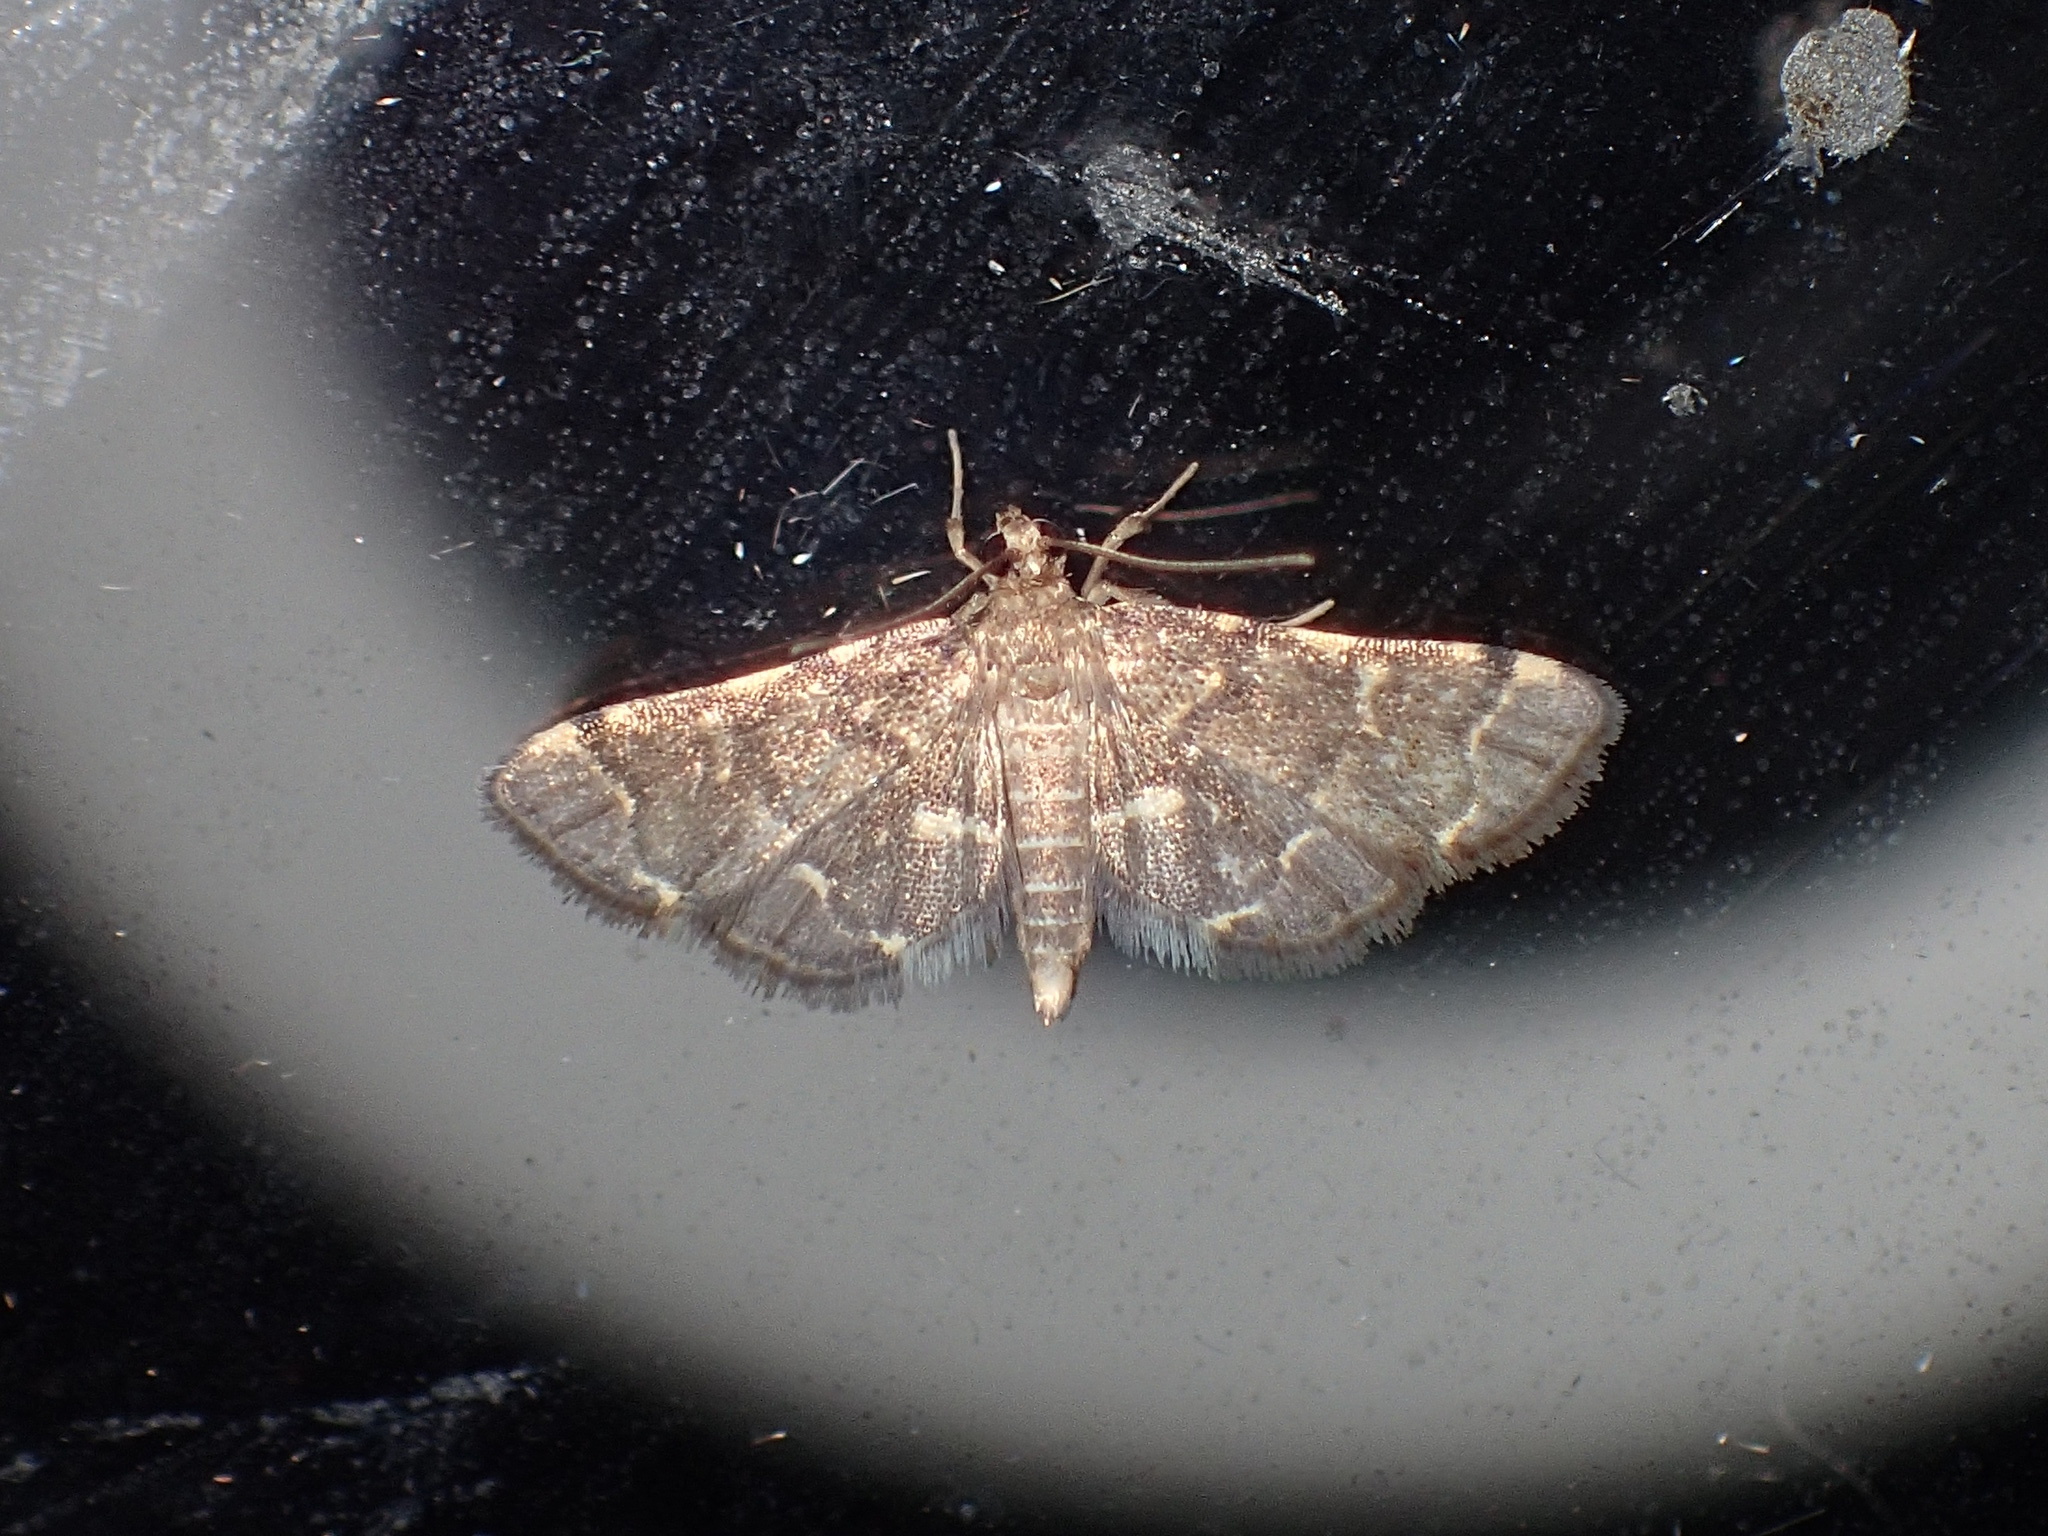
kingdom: Animalia
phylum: Arthropoda
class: Insecta
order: Lepidoptera
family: Crambidae
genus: Anageshna
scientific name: Anageshna primordialis
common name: Yellow-spotted webworm moth
